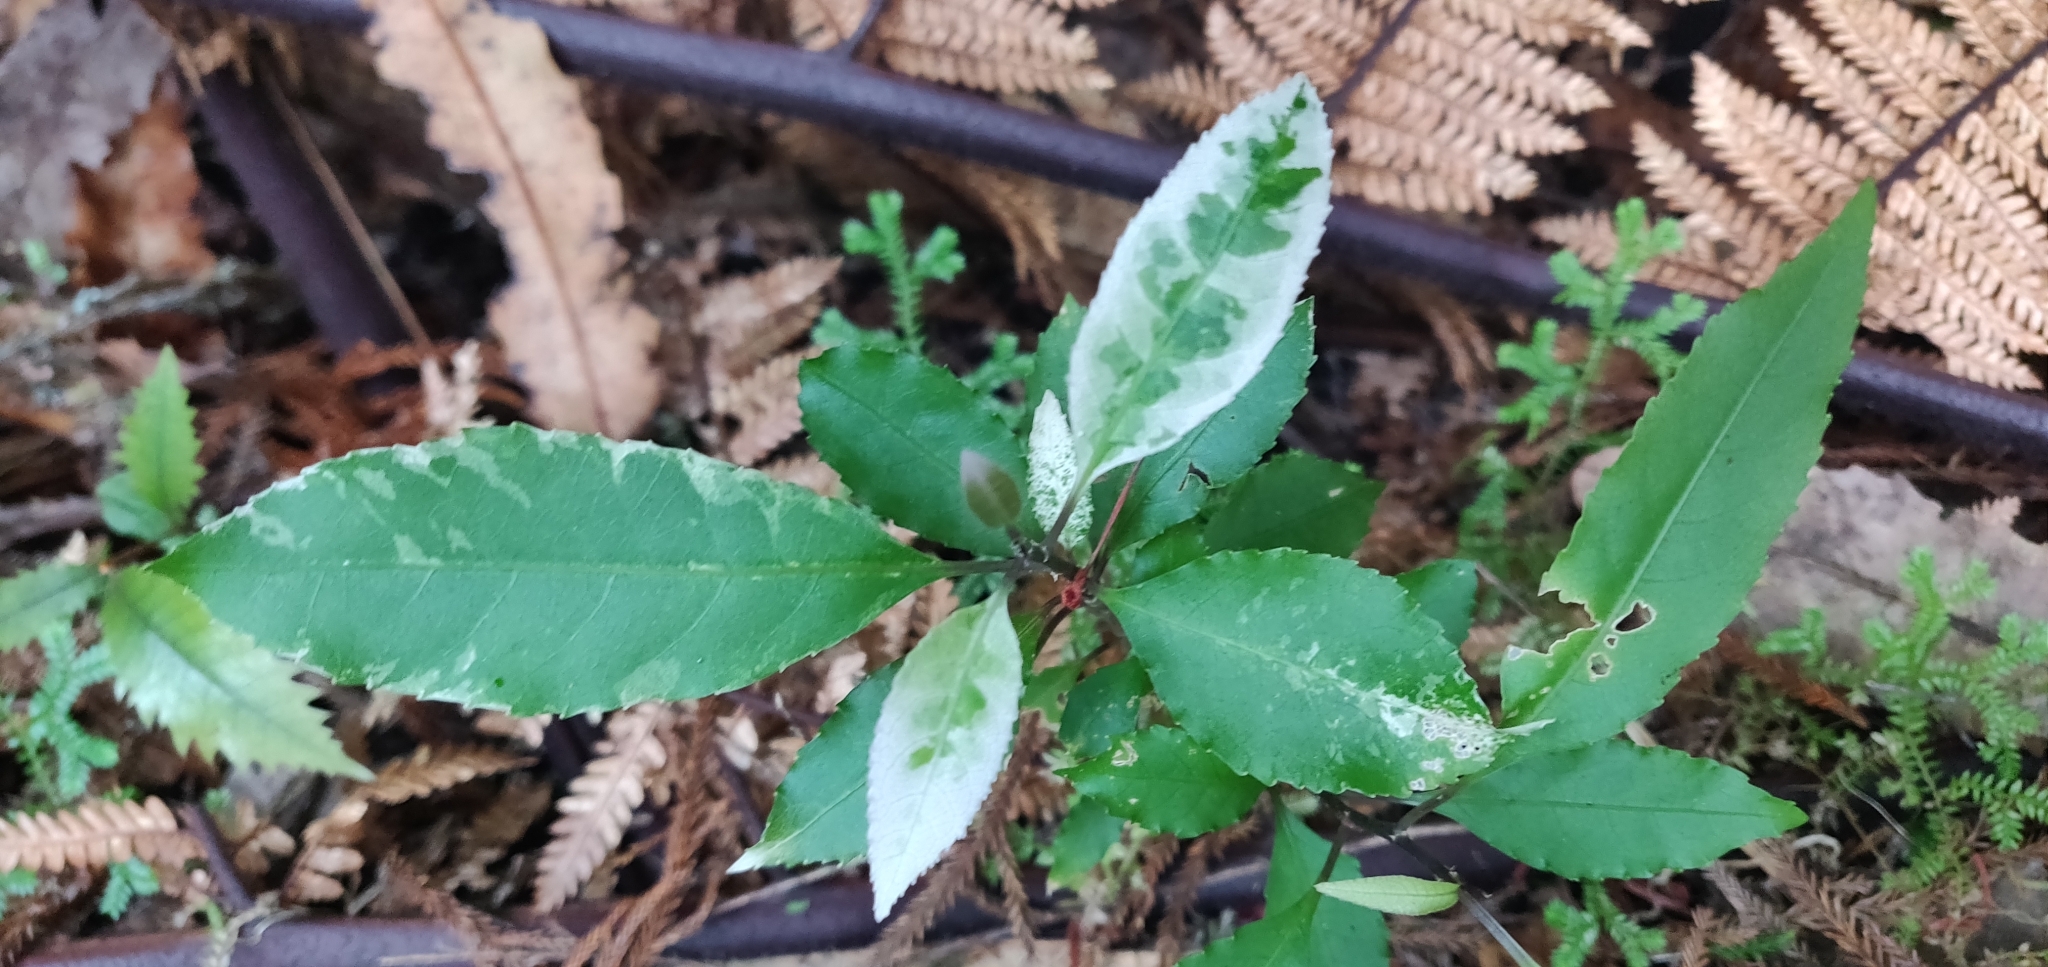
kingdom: Plantae
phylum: Tracheophyta
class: Magnoliopsida
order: Malpighiales
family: Violaceae
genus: Melicytus
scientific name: Melicytus ramiflorus
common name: Mahoe
